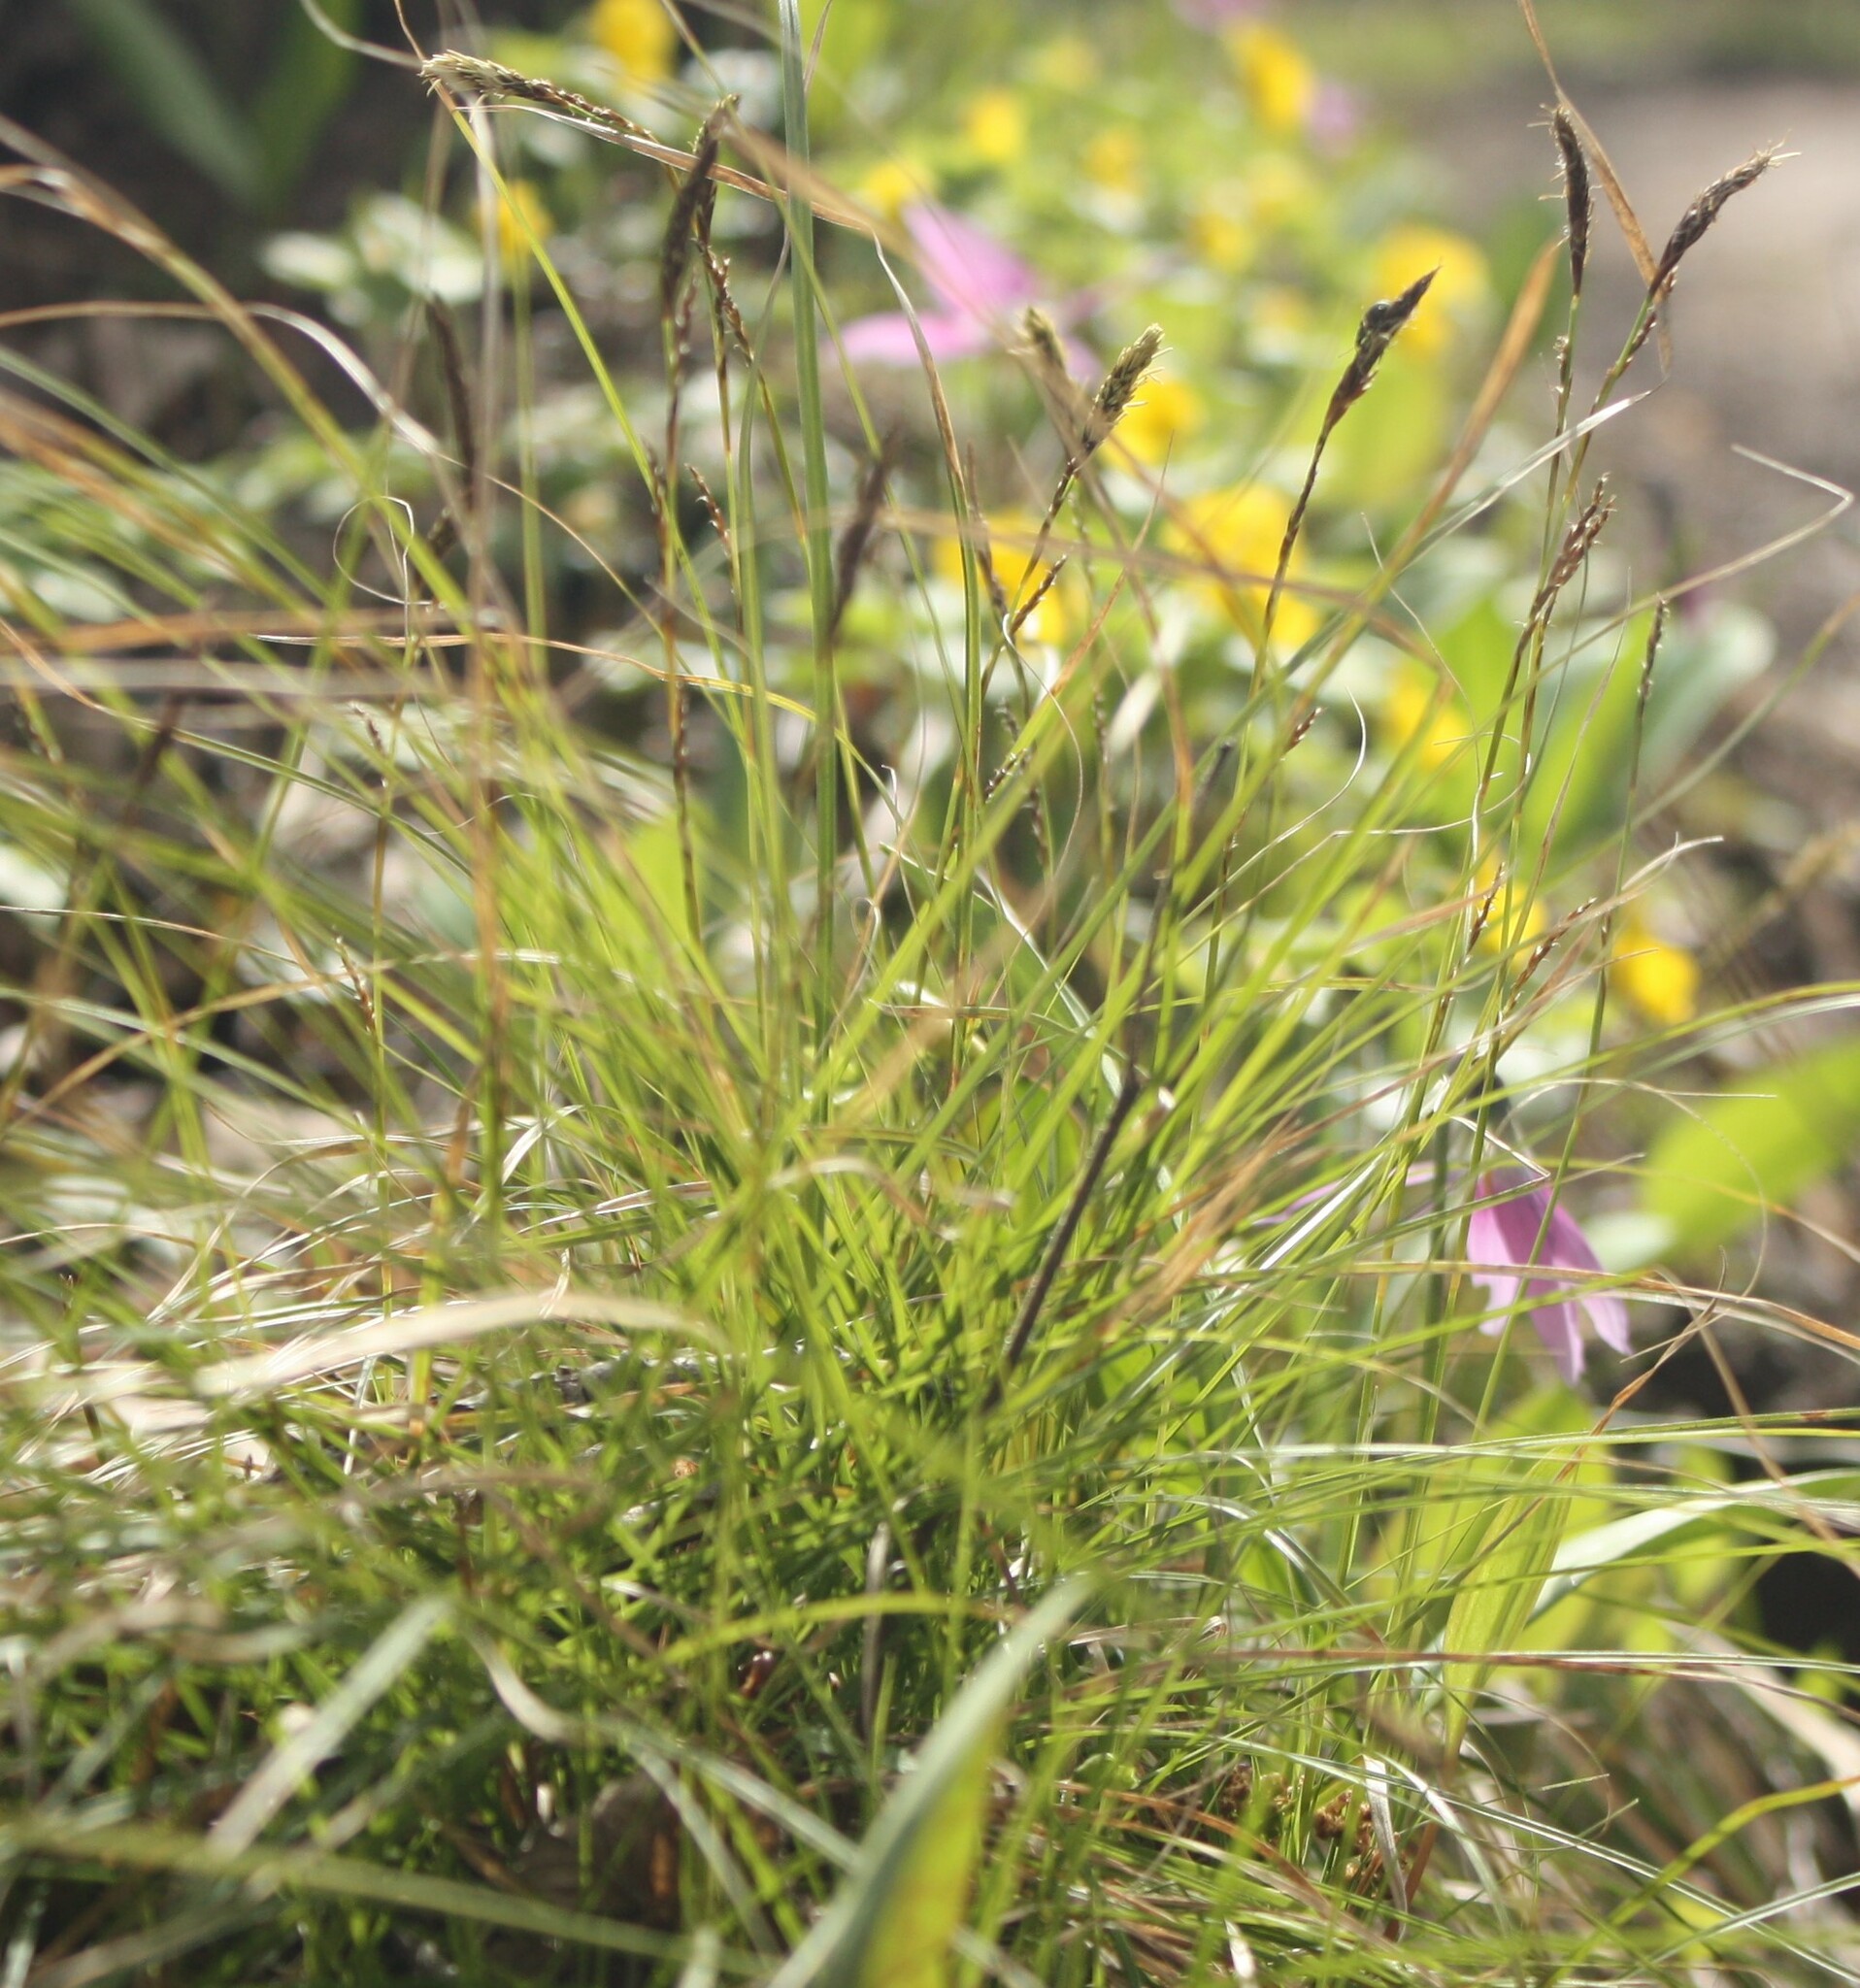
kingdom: Plantae
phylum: Tracheophyta
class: Liliopsida
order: Poales
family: Cyperaceae
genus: Carex
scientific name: Carex pediformis
